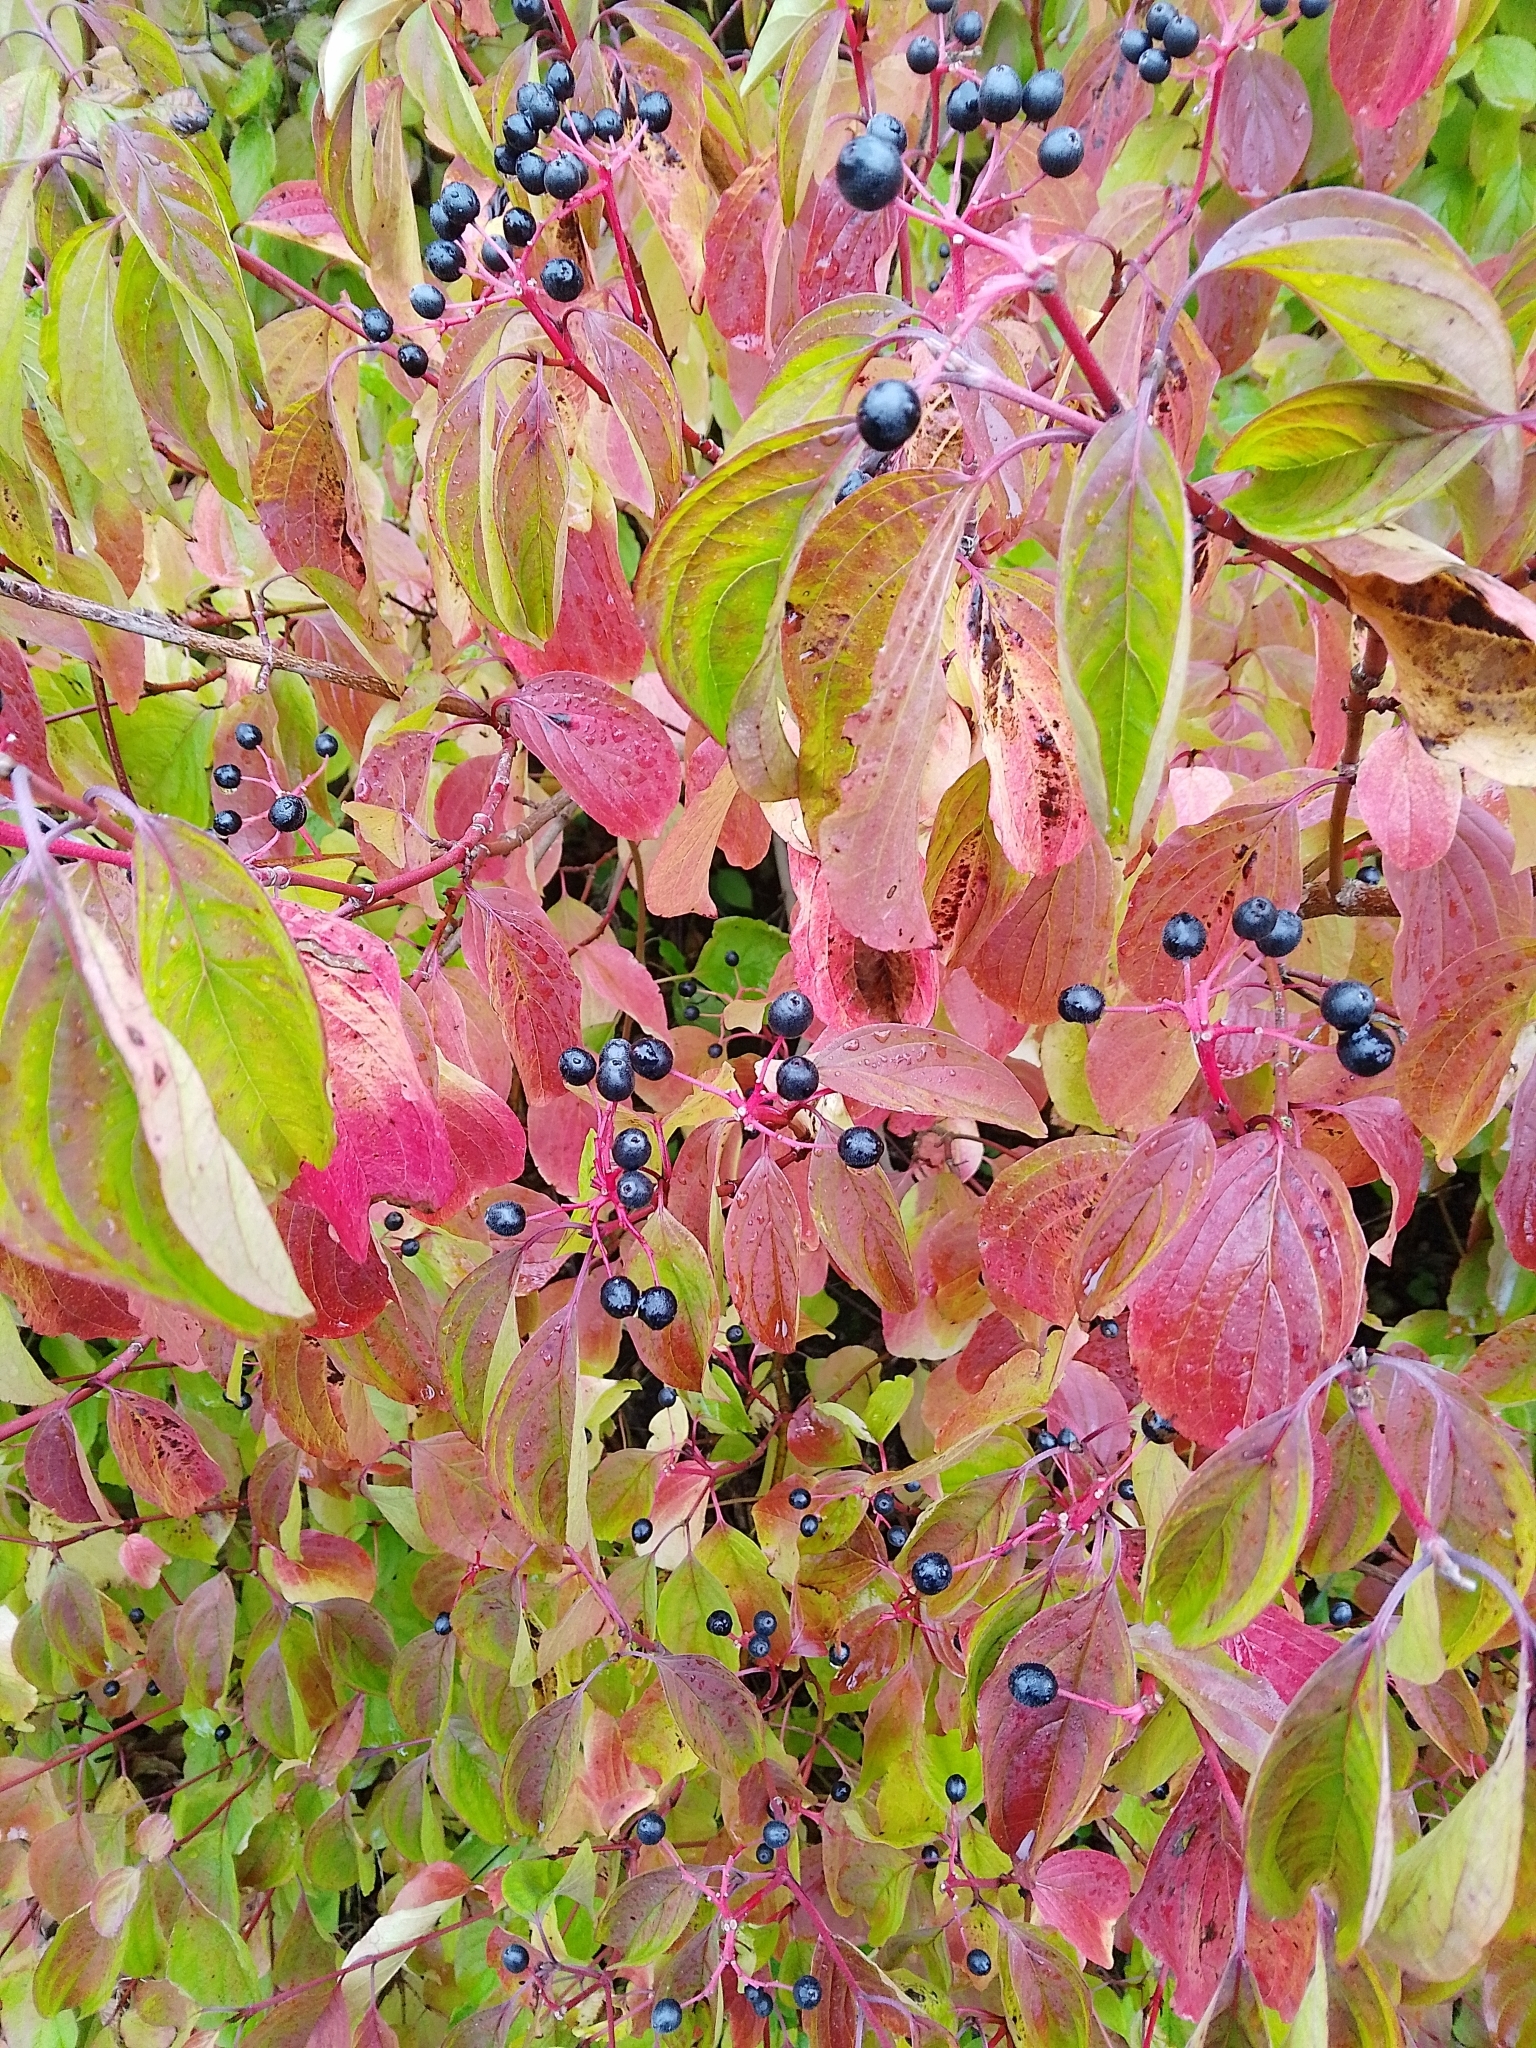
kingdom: Plantae
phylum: Tracheophyta
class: Magnoliopsida
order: Cornales
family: Cornaceae
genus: Cornus
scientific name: Cornus sanguinea
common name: Dogwood
